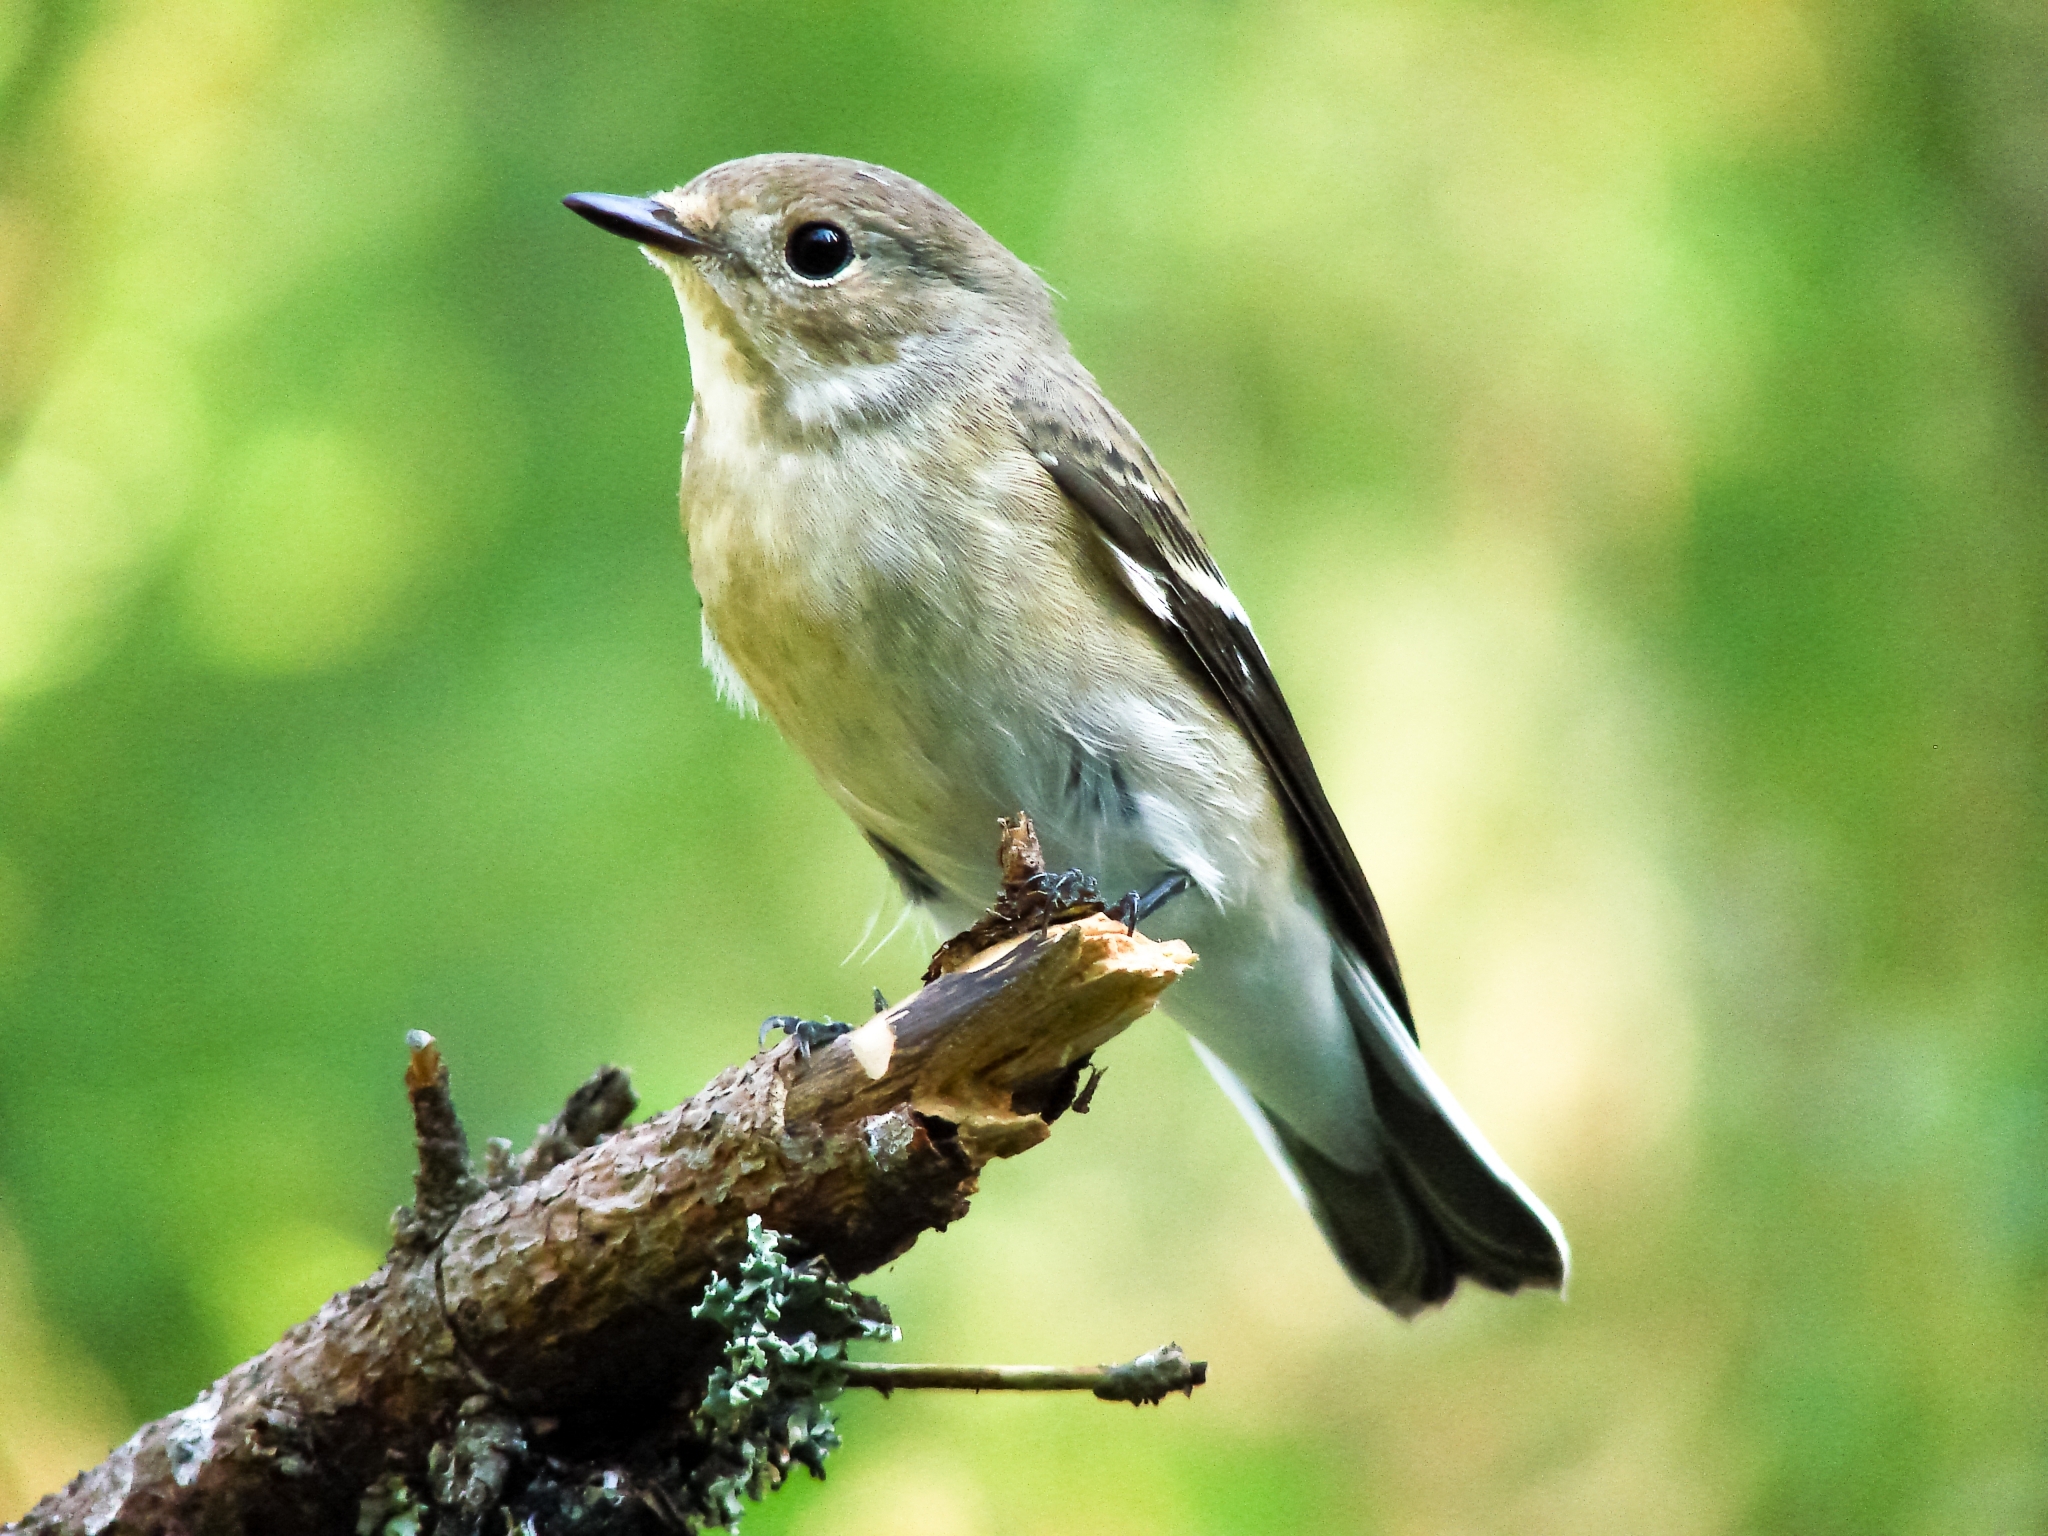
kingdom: Animalia
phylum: Chordata
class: Aves
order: Passeriformes
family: Muscicapidae
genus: Ficedula
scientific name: Ficedula hypoleuca
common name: European pied flycatcher
